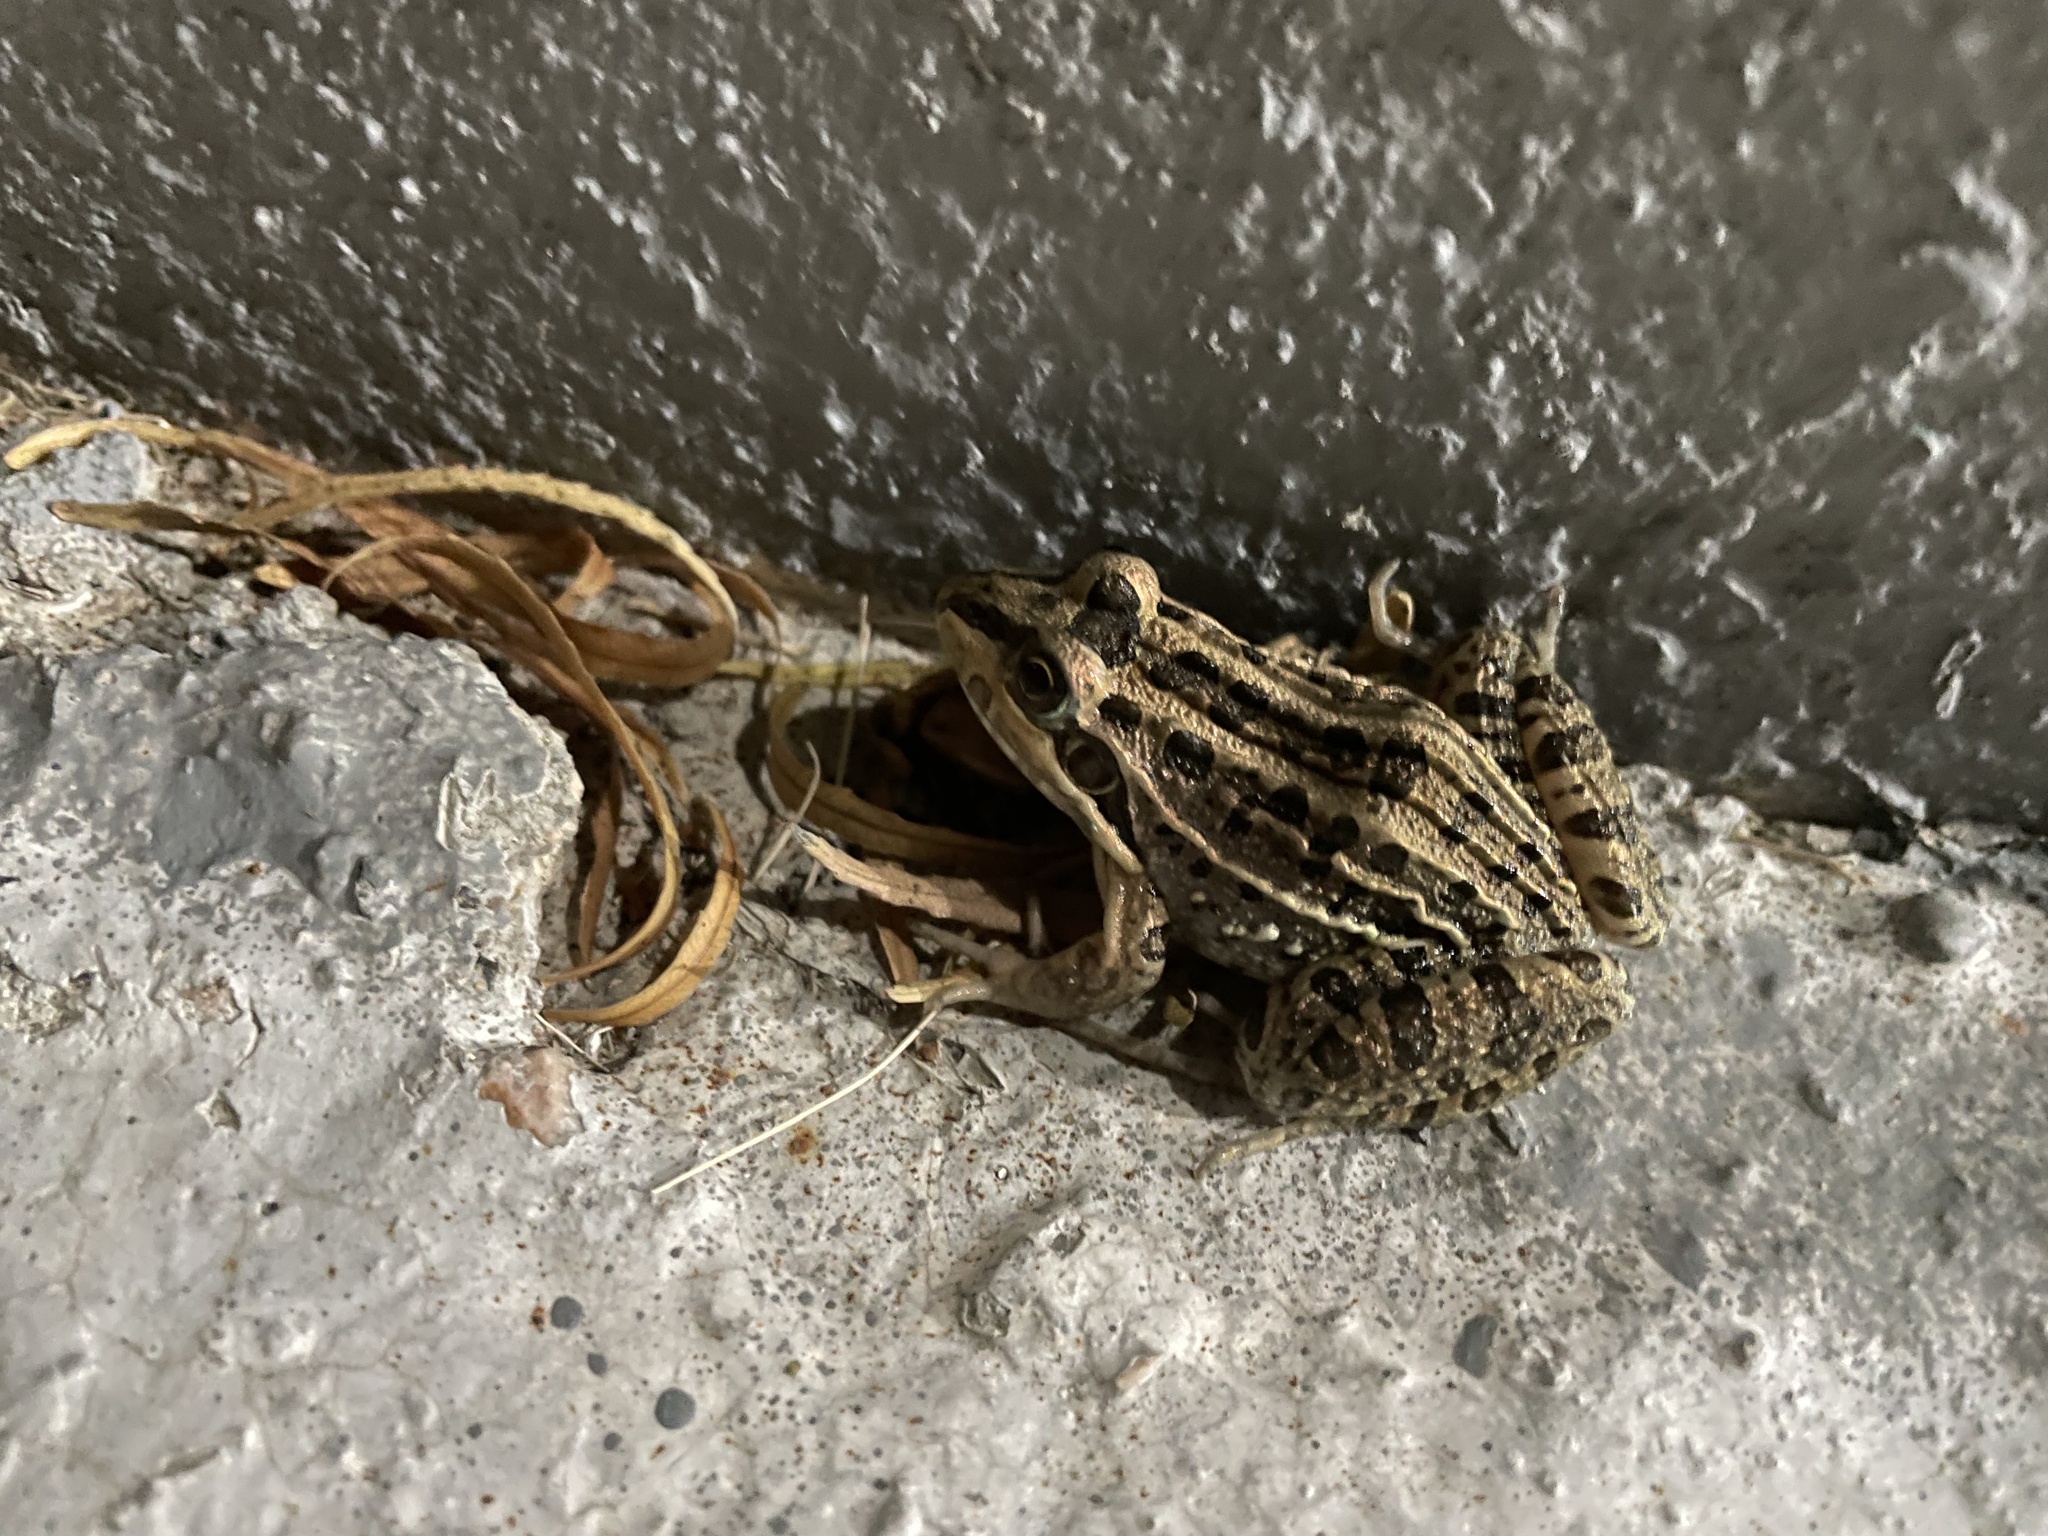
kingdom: Animalia
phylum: Chordata
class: Amphibia
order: Anura
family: Leptodactylidae
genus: Leptodactylus
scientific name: Leptodactylus luctator
